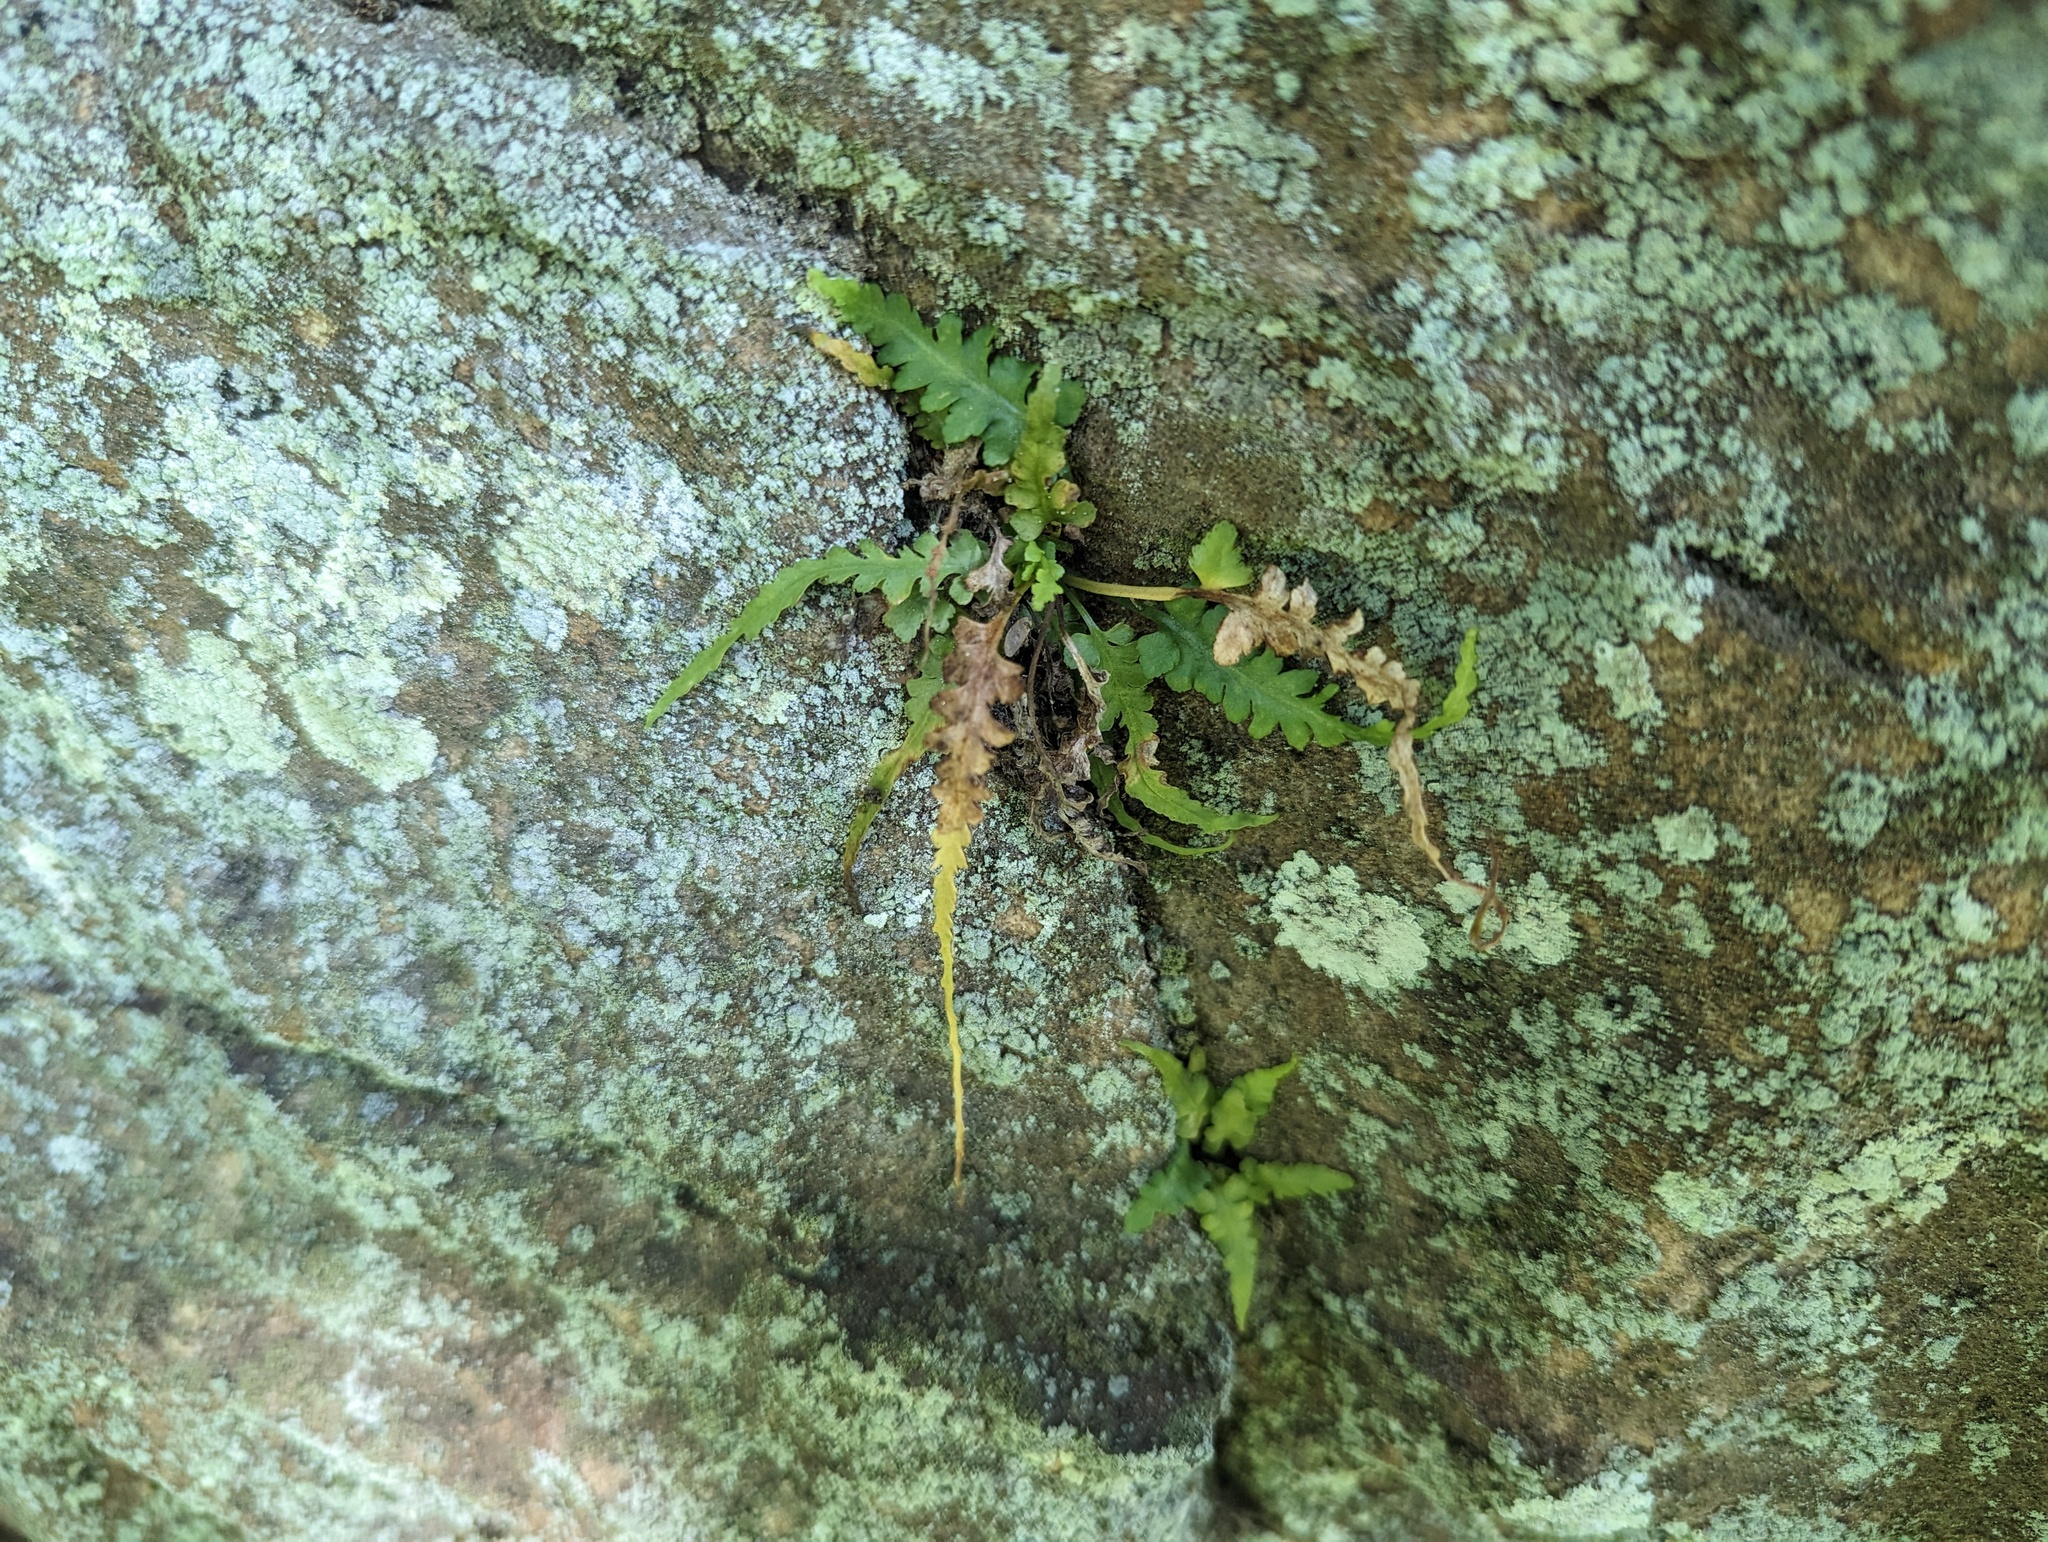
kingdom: Plantae
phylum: Tracheophyta
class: Polypodiopsida
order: Polypodiales
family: Aspleniaceae
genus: Asplenium
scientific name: Asplenium pinnatifidum
